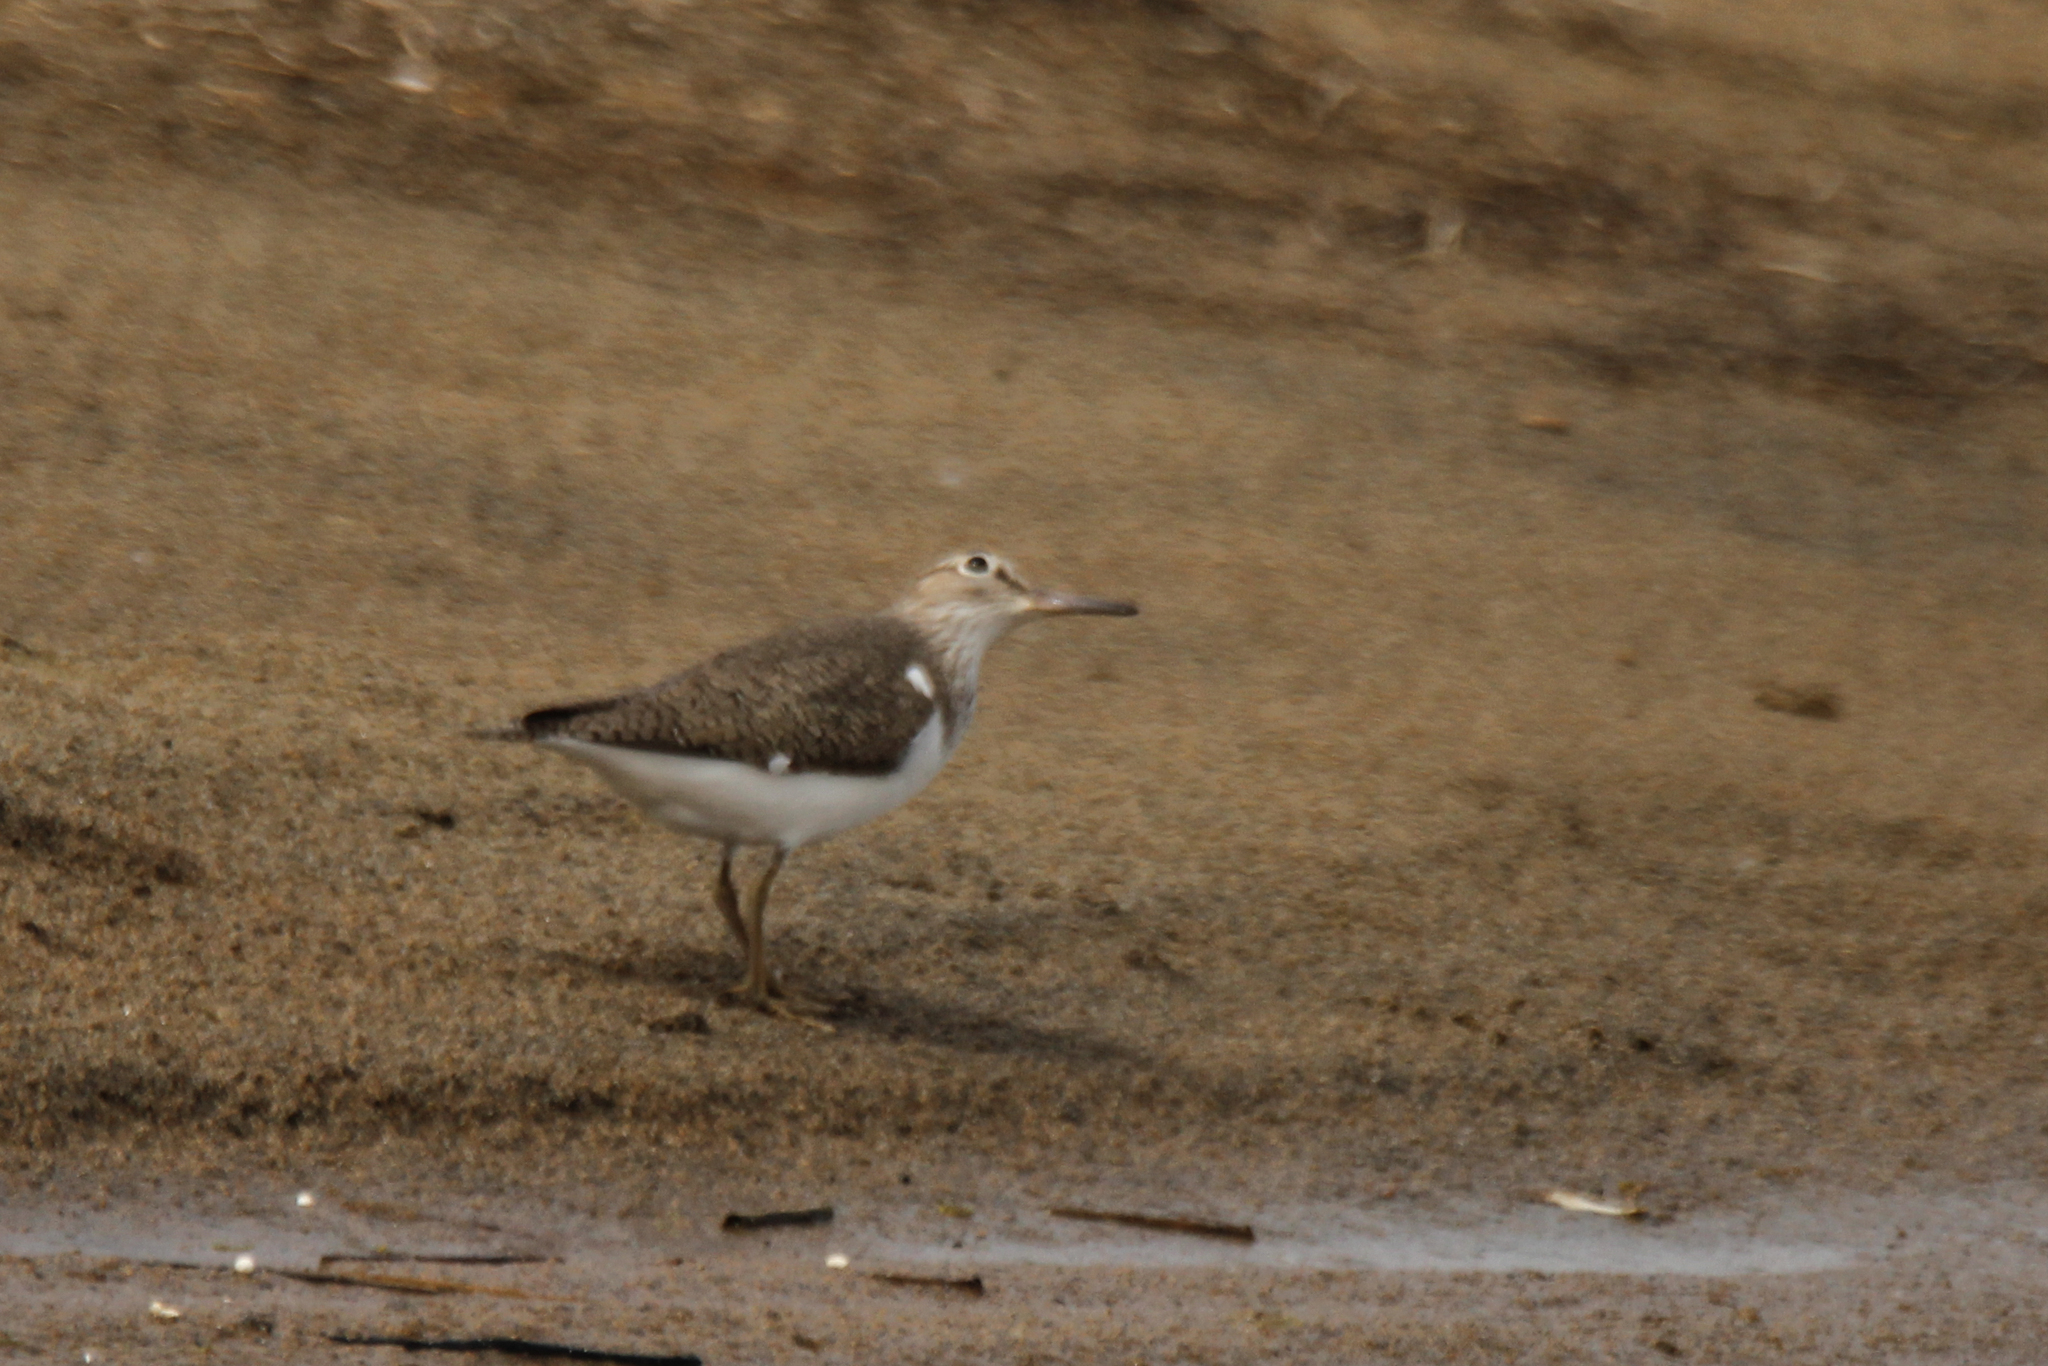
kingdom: Animalia
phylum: Chordata
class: Aves
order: Charadriiformes
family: Scolopacidae
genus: Actitis
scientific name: Actitis hypoleucos
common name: Common sandpiper
